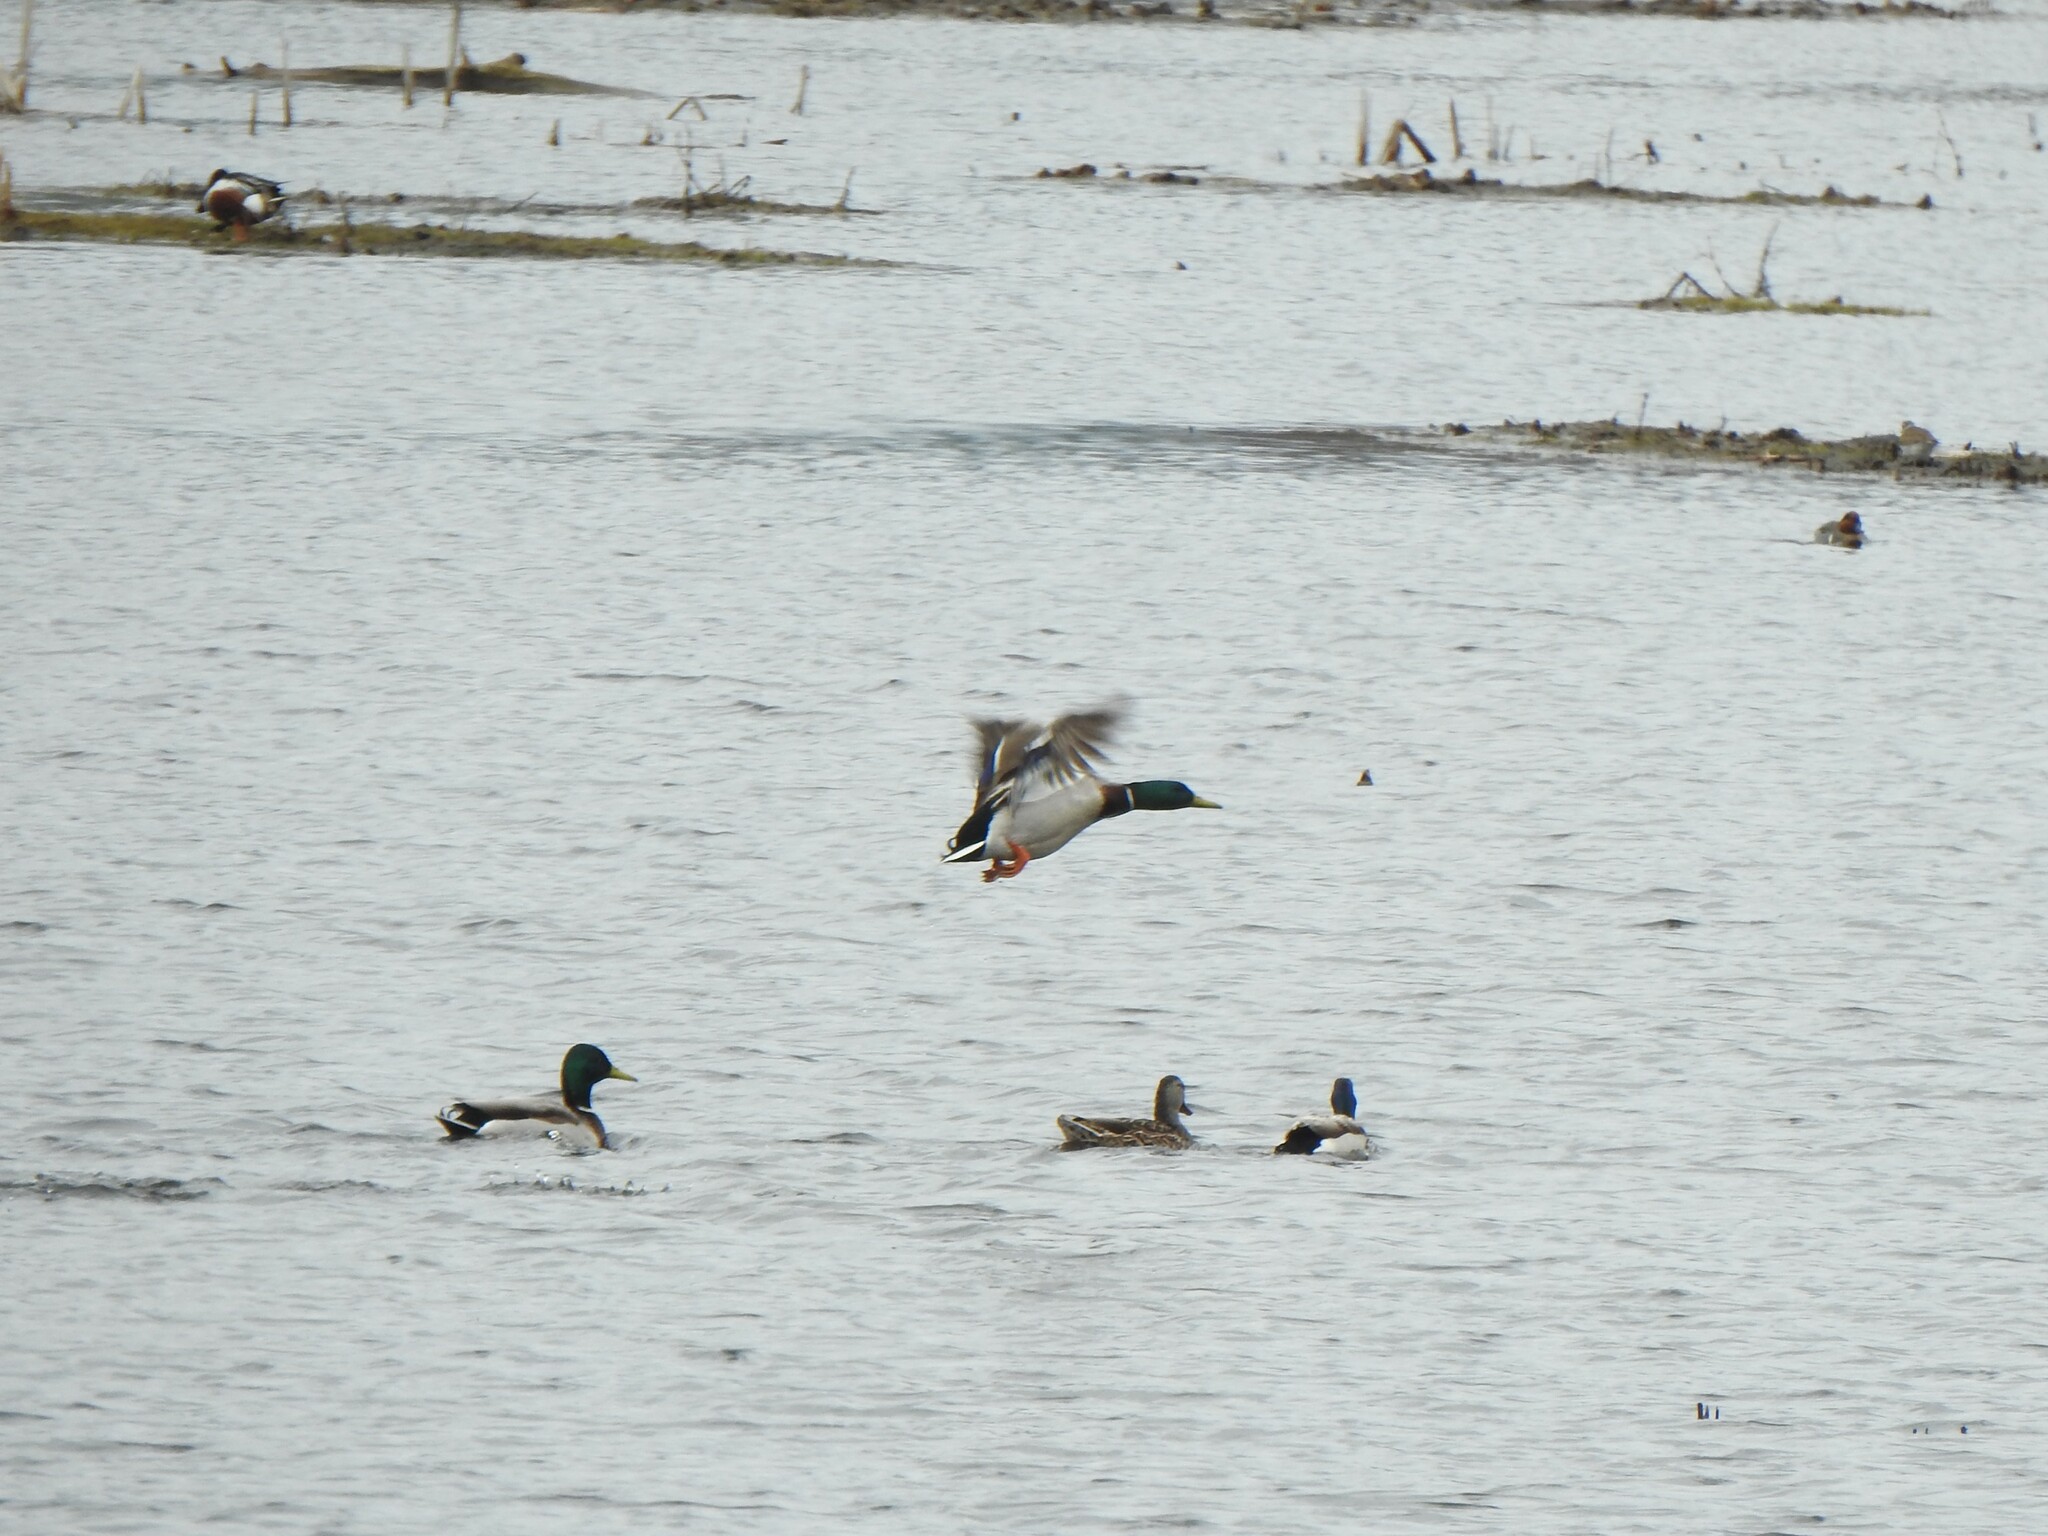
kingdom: Animalia
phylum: Chordata
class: Aves
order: Anseriformes
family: Anatidae
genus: Anas
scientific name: Anas platyrhynchos
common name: Mallard
